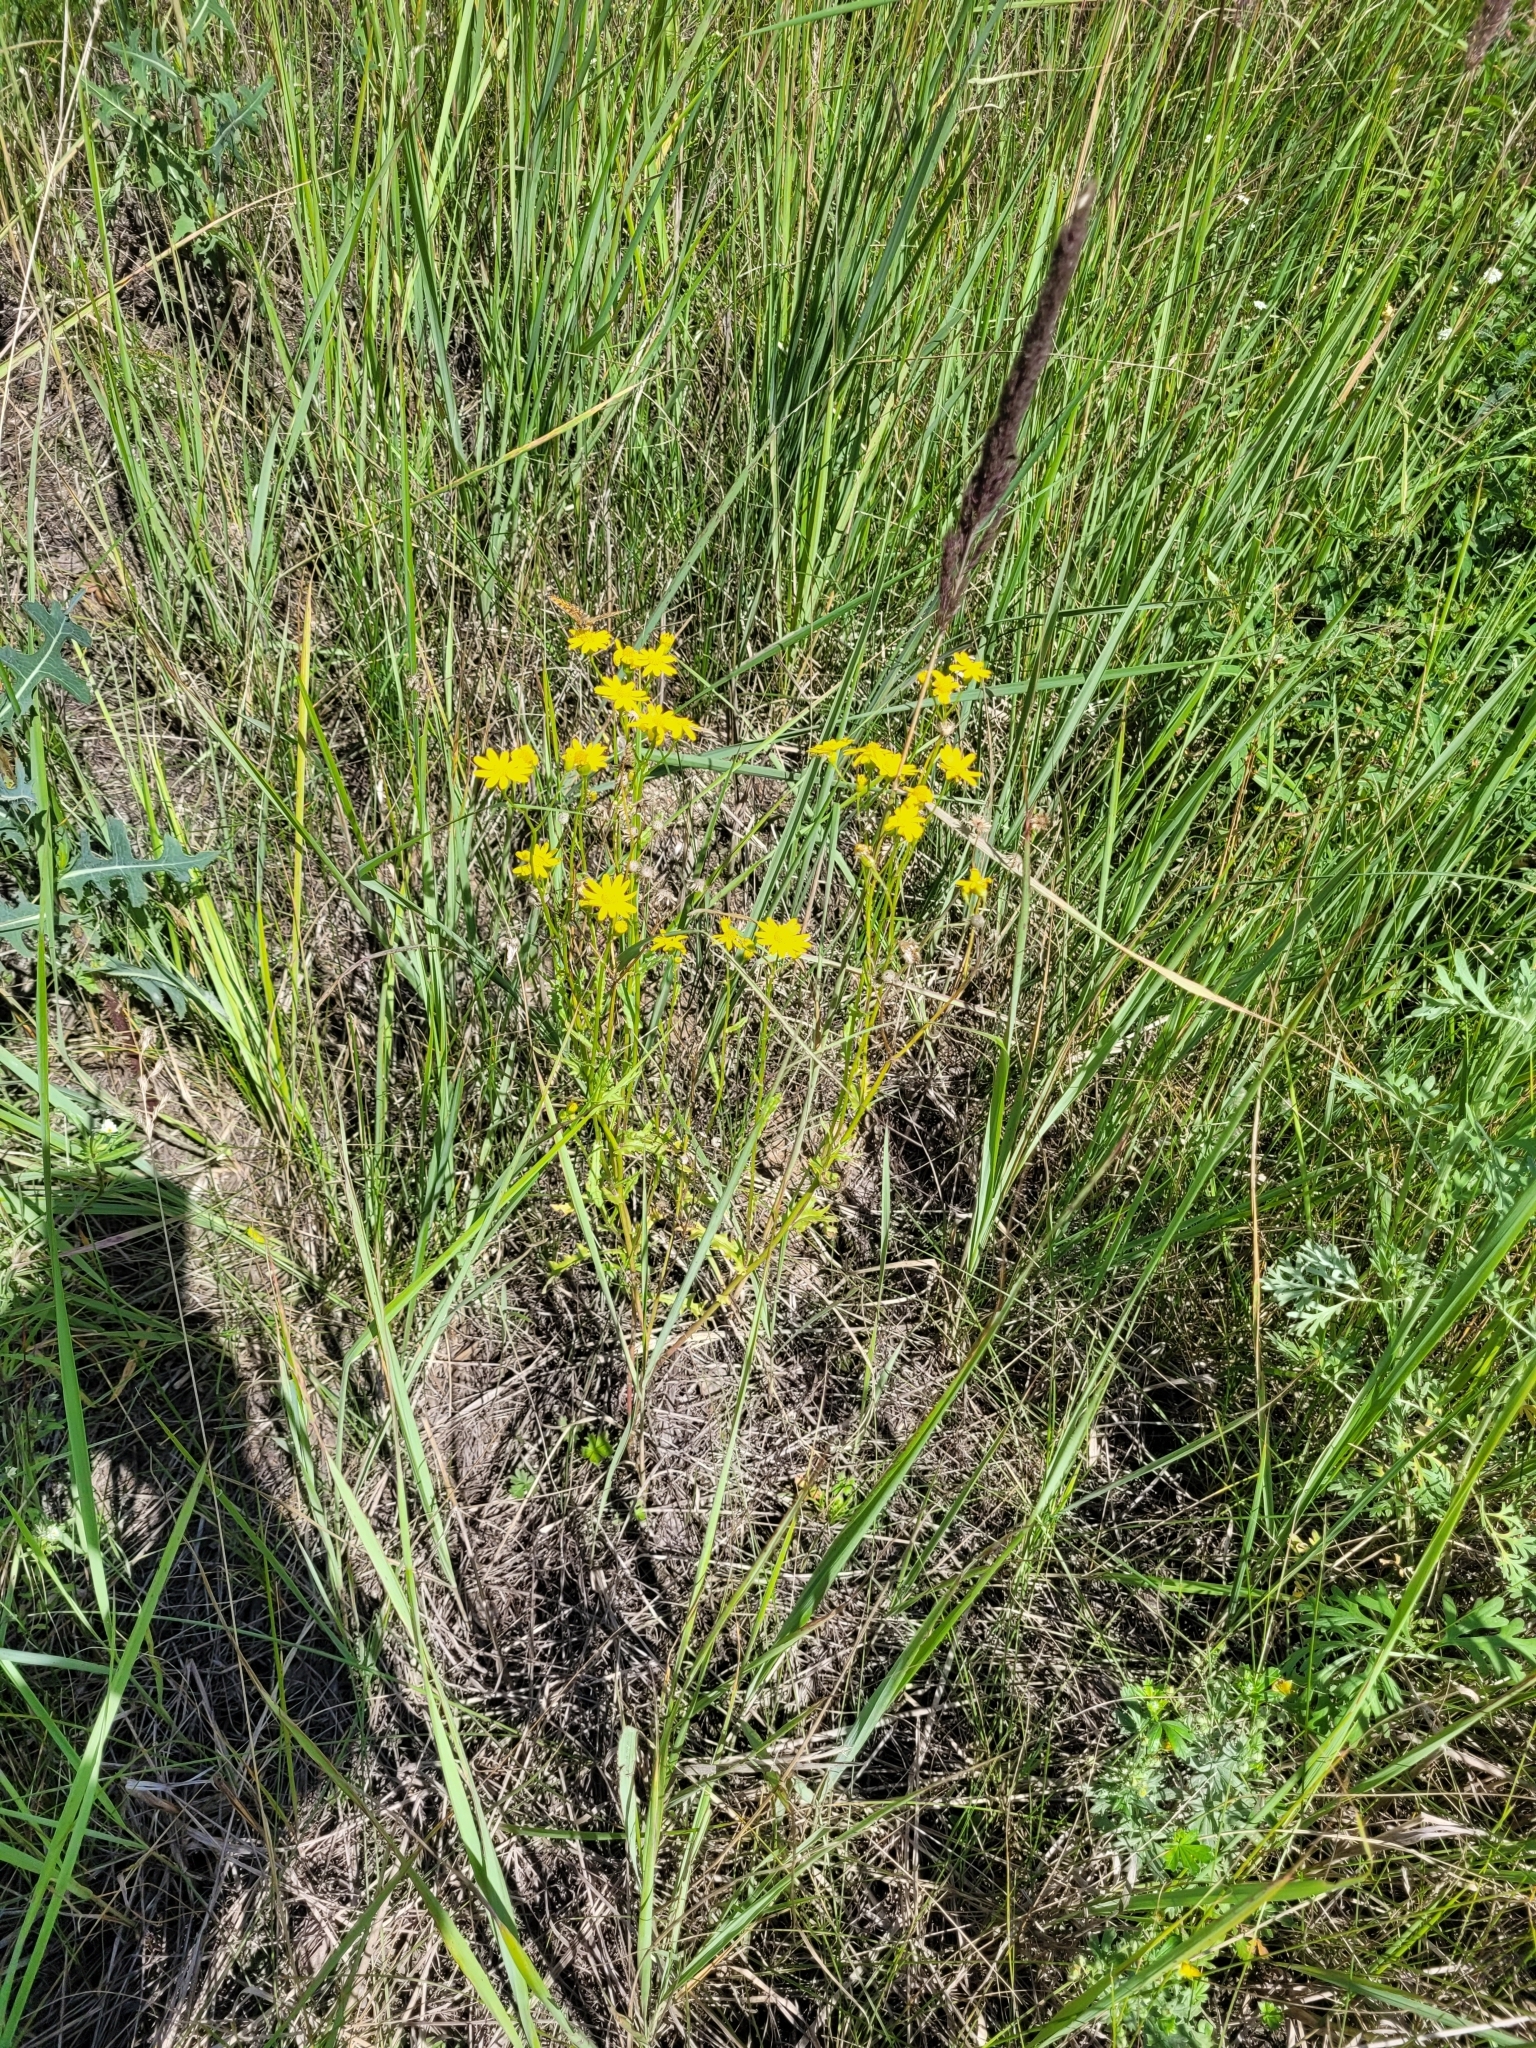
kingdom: Plantae
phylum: Tracheophyta
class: Magnoliopsida
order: Asterales
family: Asteraceae
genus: Senecio
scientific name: Senecio vernalis
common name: Eastern groundsel
